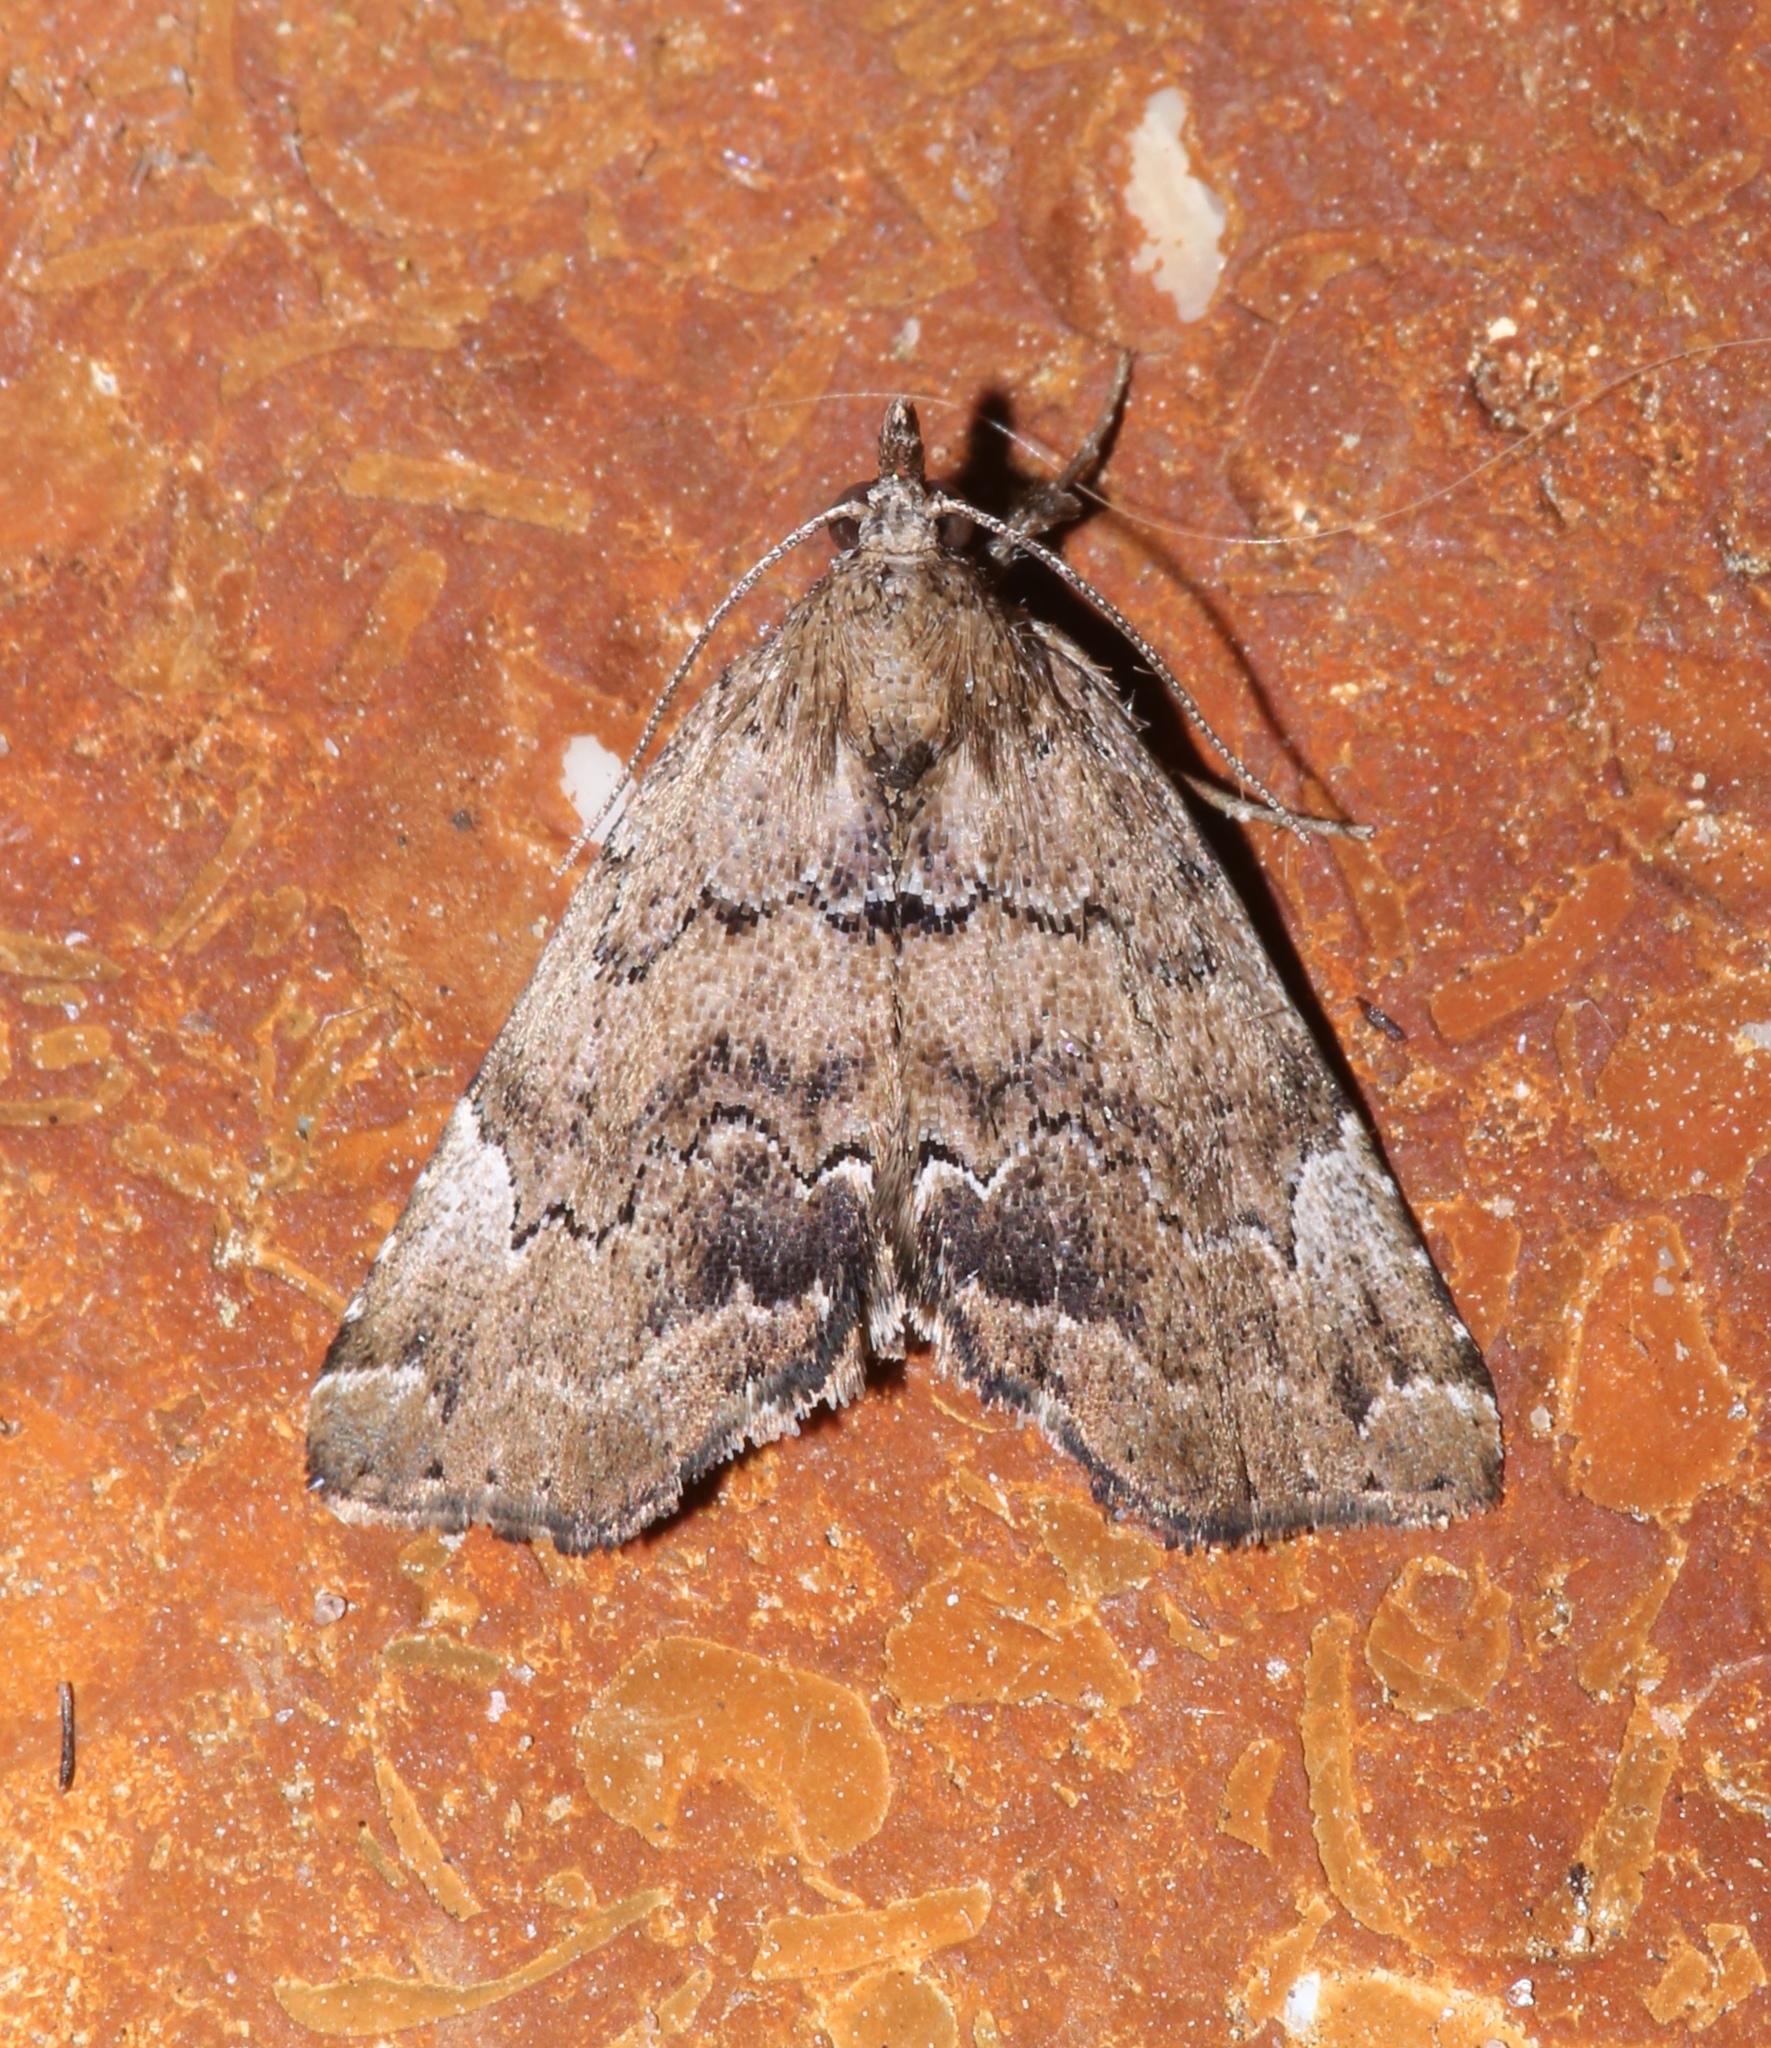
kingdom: Animalia
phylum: Arthropoda
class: Insecta
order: Lepidoptera
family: Erebidae
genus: Cutina
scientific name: Cutina aluticolor
